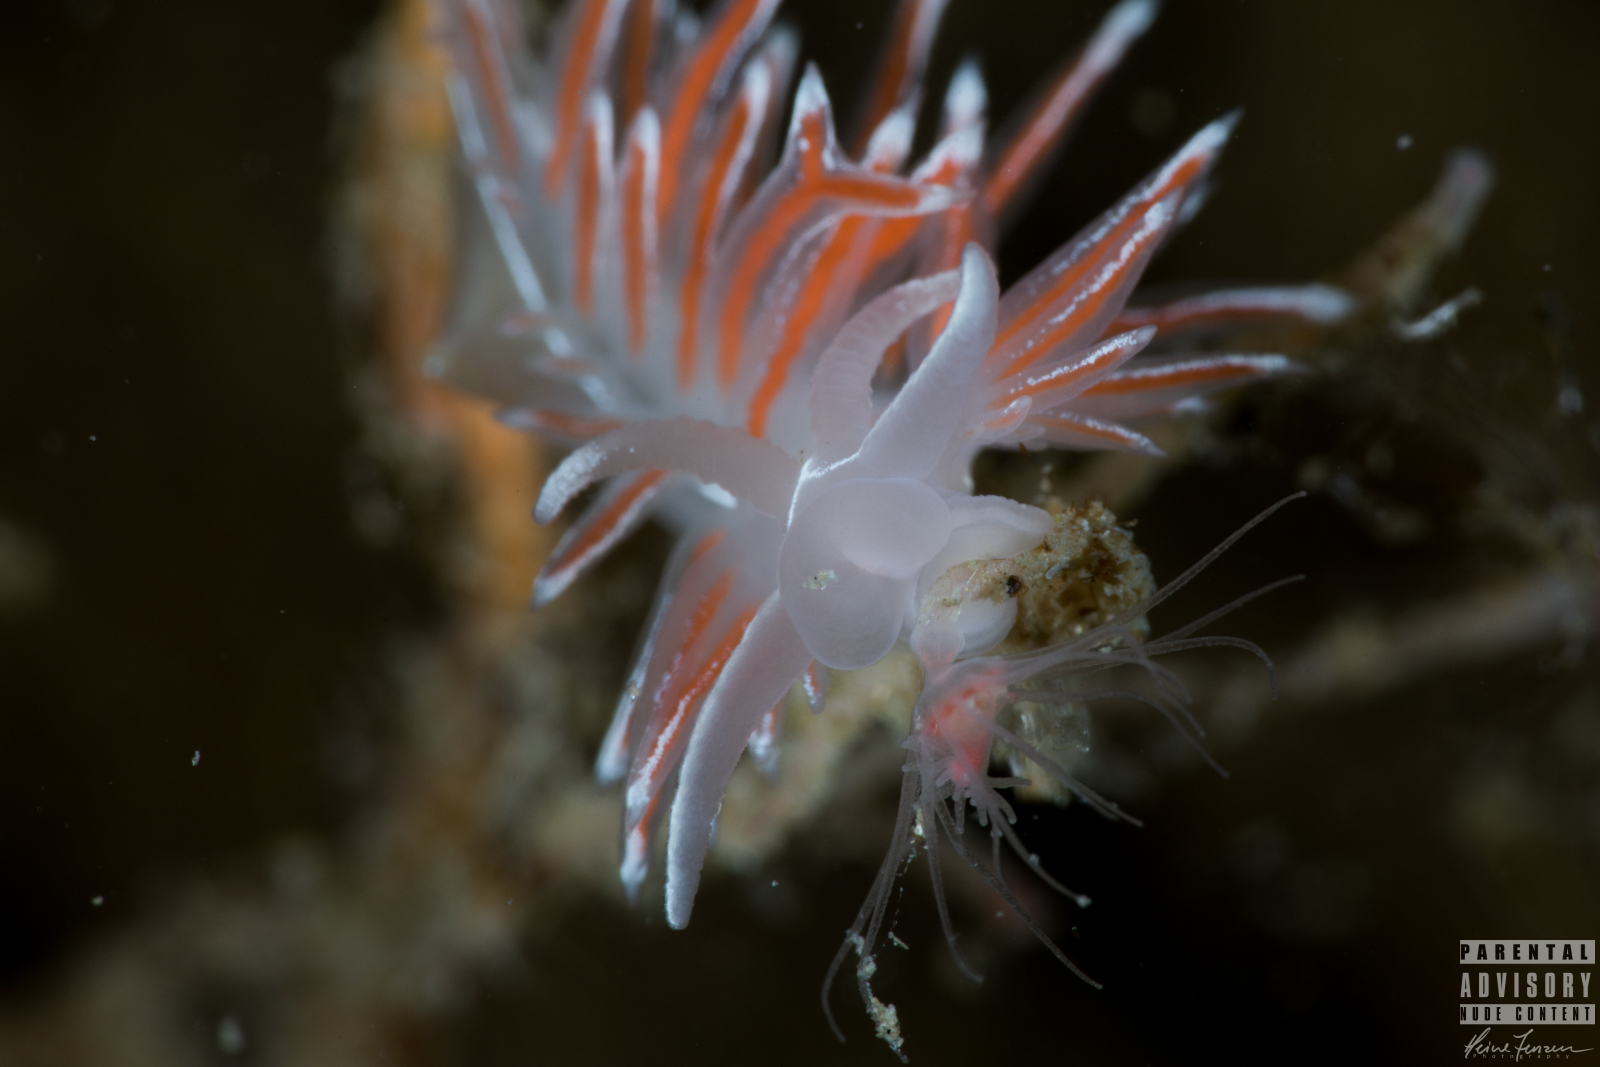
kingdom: Animalia
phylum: Mollusca
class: Gastropoda
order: Nudibranchia
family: Coryphellidae
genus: Coryphella
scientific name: Coryphella lineata
